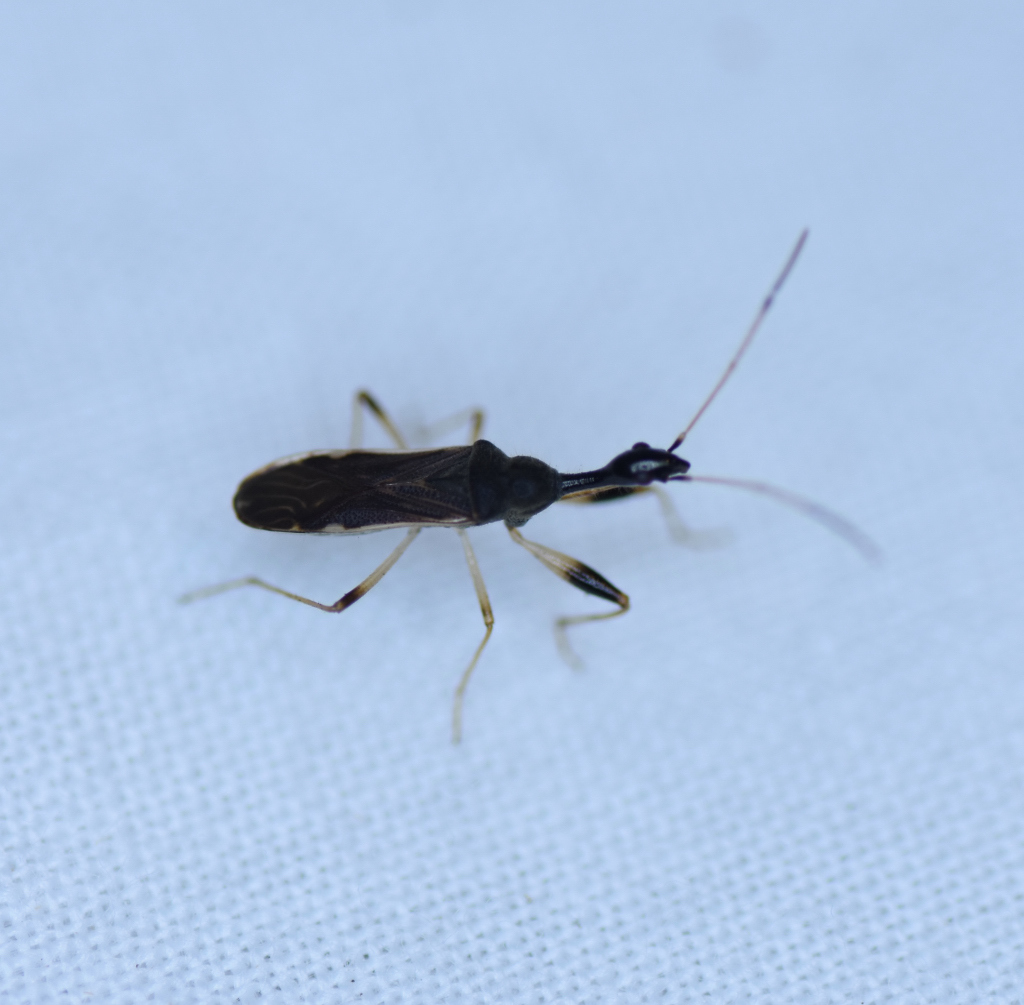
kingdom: Animalia
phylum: Arthropoda
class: Insecta
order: Hemiptera
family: Rhyparochromidae
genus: Myodocha
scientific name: Myodocha serripes
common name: Long-necked seed bug
